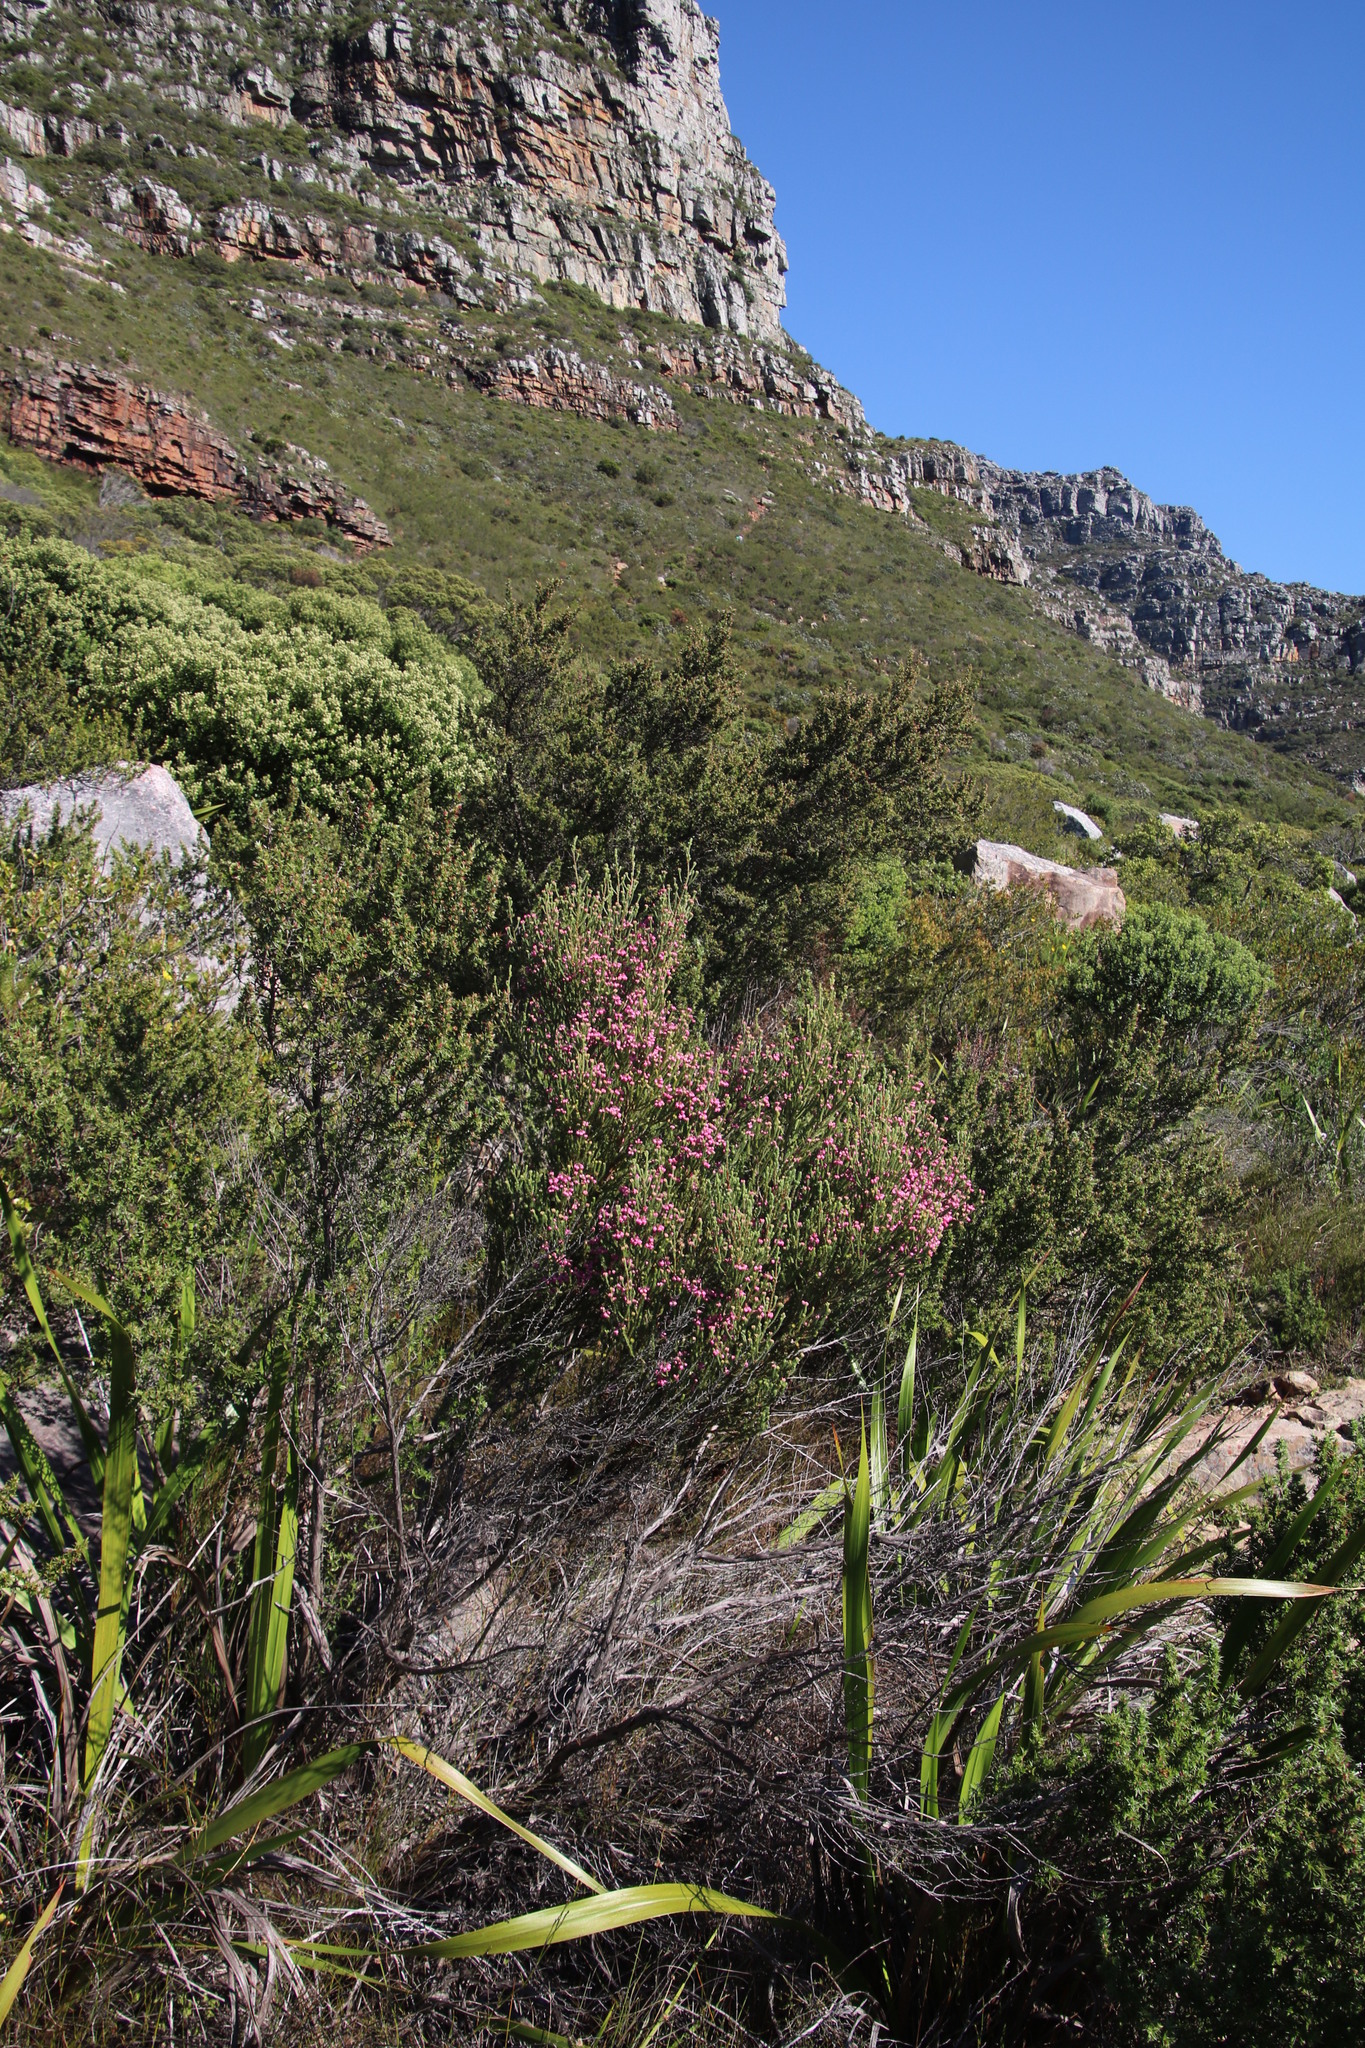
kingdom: Plantae
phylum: Tracheophyta
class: Magnoliopsida
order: Ericales
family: Ericaceae
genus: Erica
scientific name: Erica baccans
